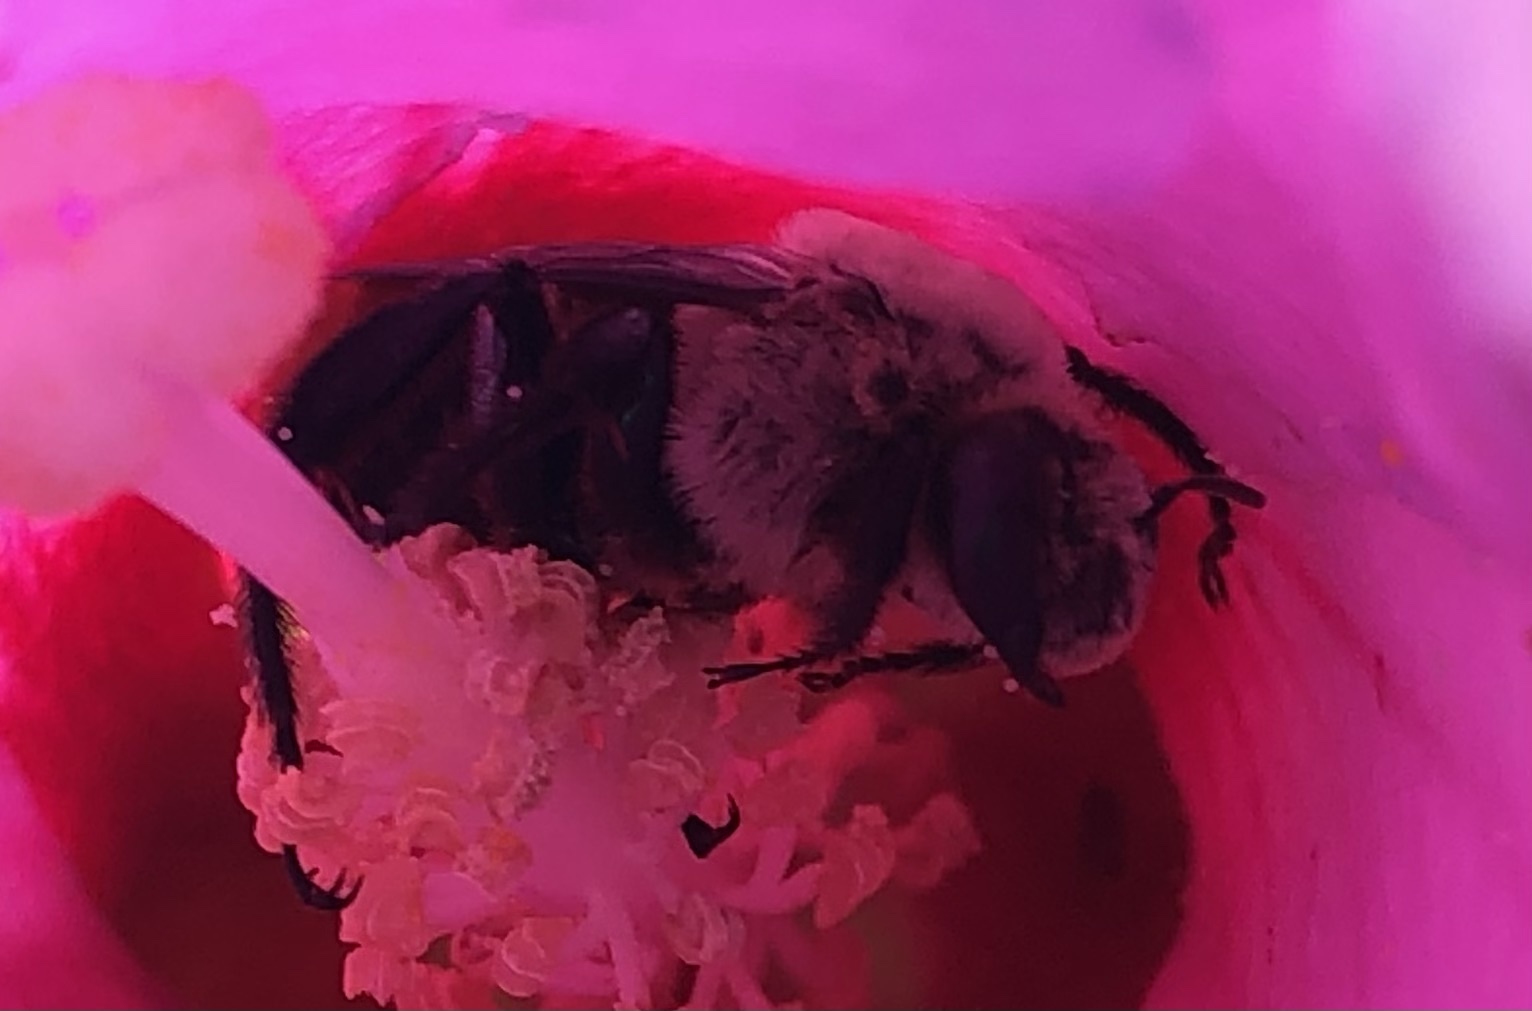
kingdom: Animalia
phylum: Arthropoda
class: Insecta
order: Hymenoptera
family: Apidae
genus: Ptilothrix
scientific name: Ptilothrix bombiformis
